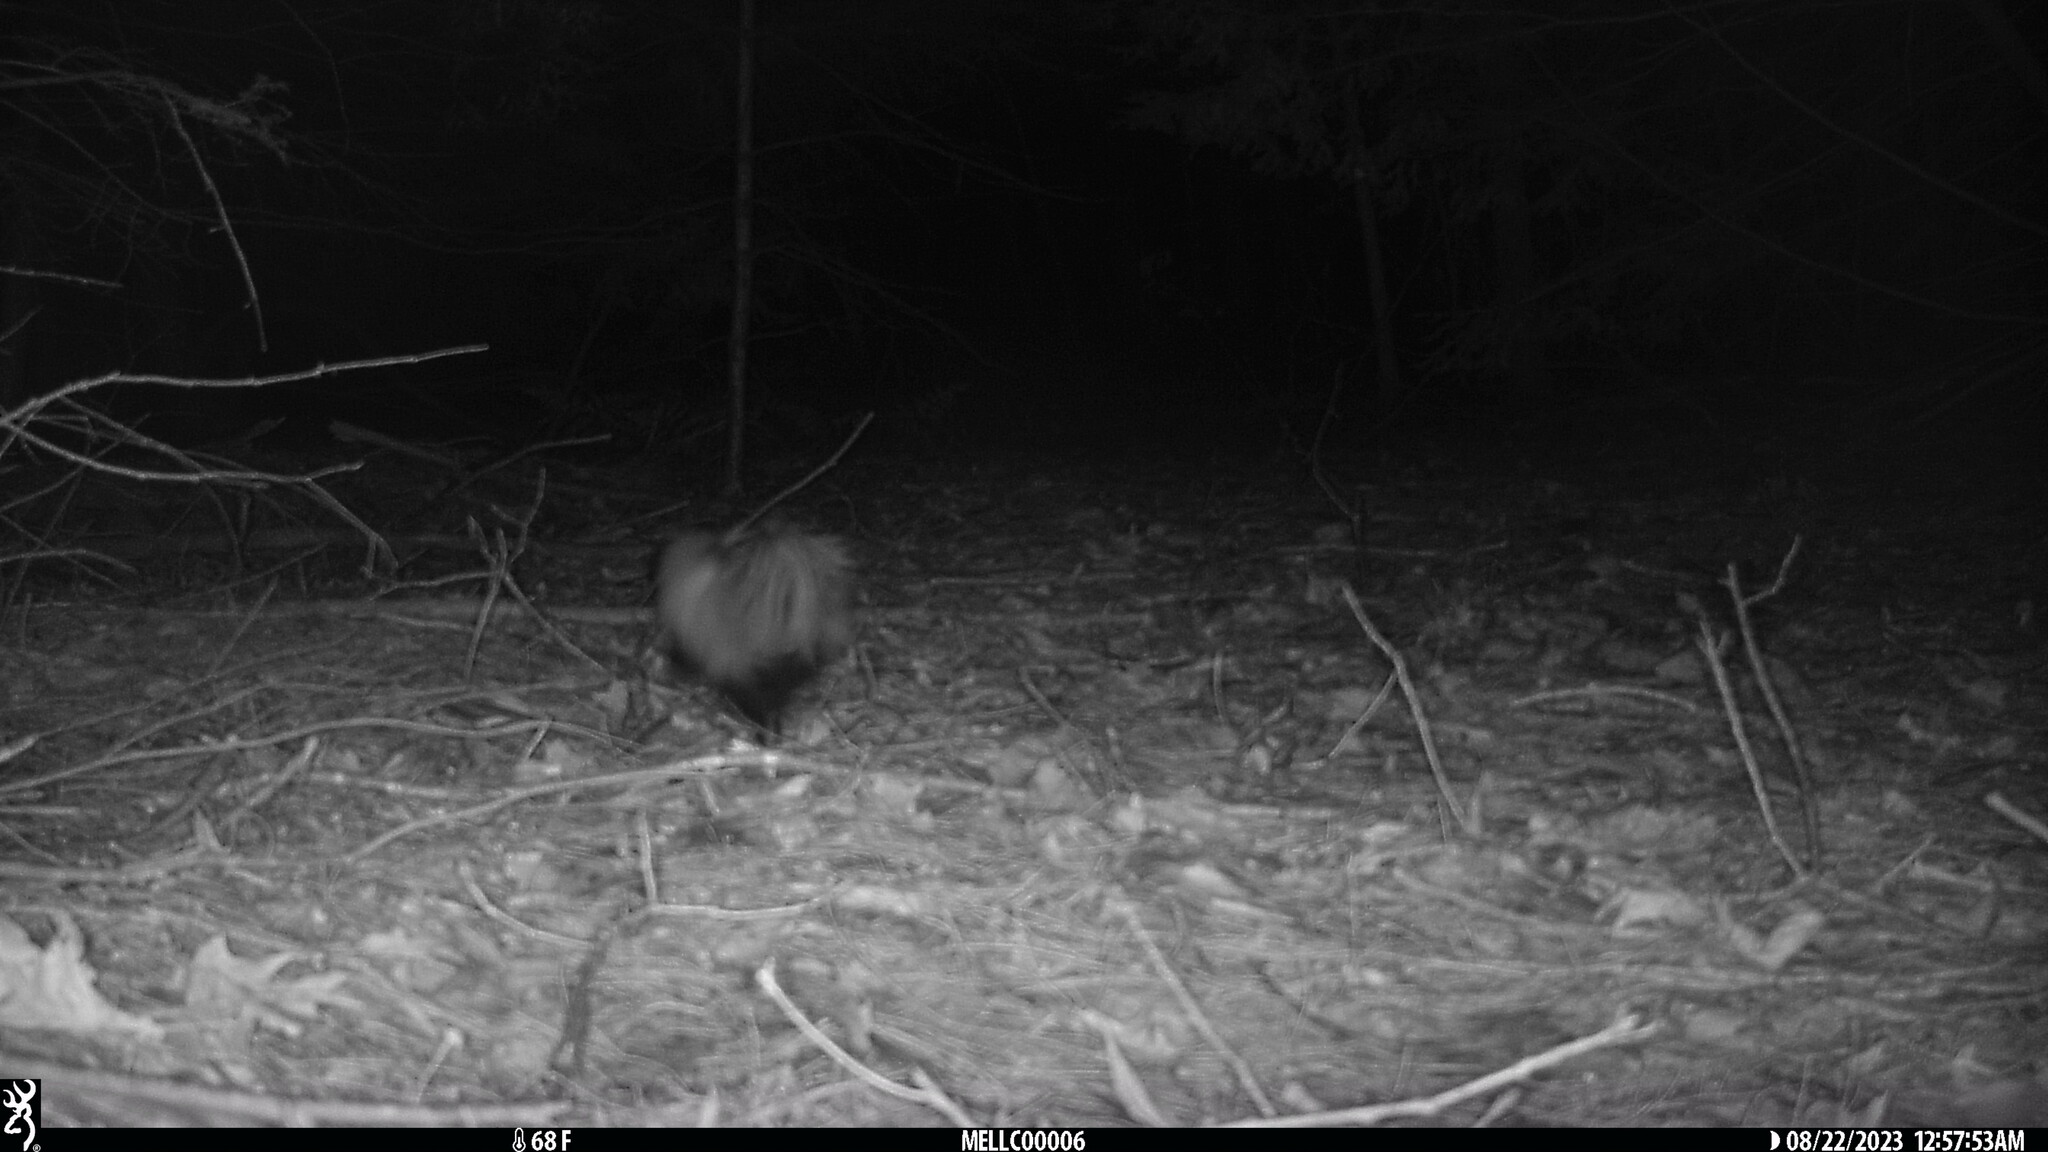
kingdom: Animalia
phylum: Chordata
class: Mammalia
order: Carnivora
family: Mephitidae
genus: Mephitis
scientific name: Mephitis mephitis
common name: Striped skunk
